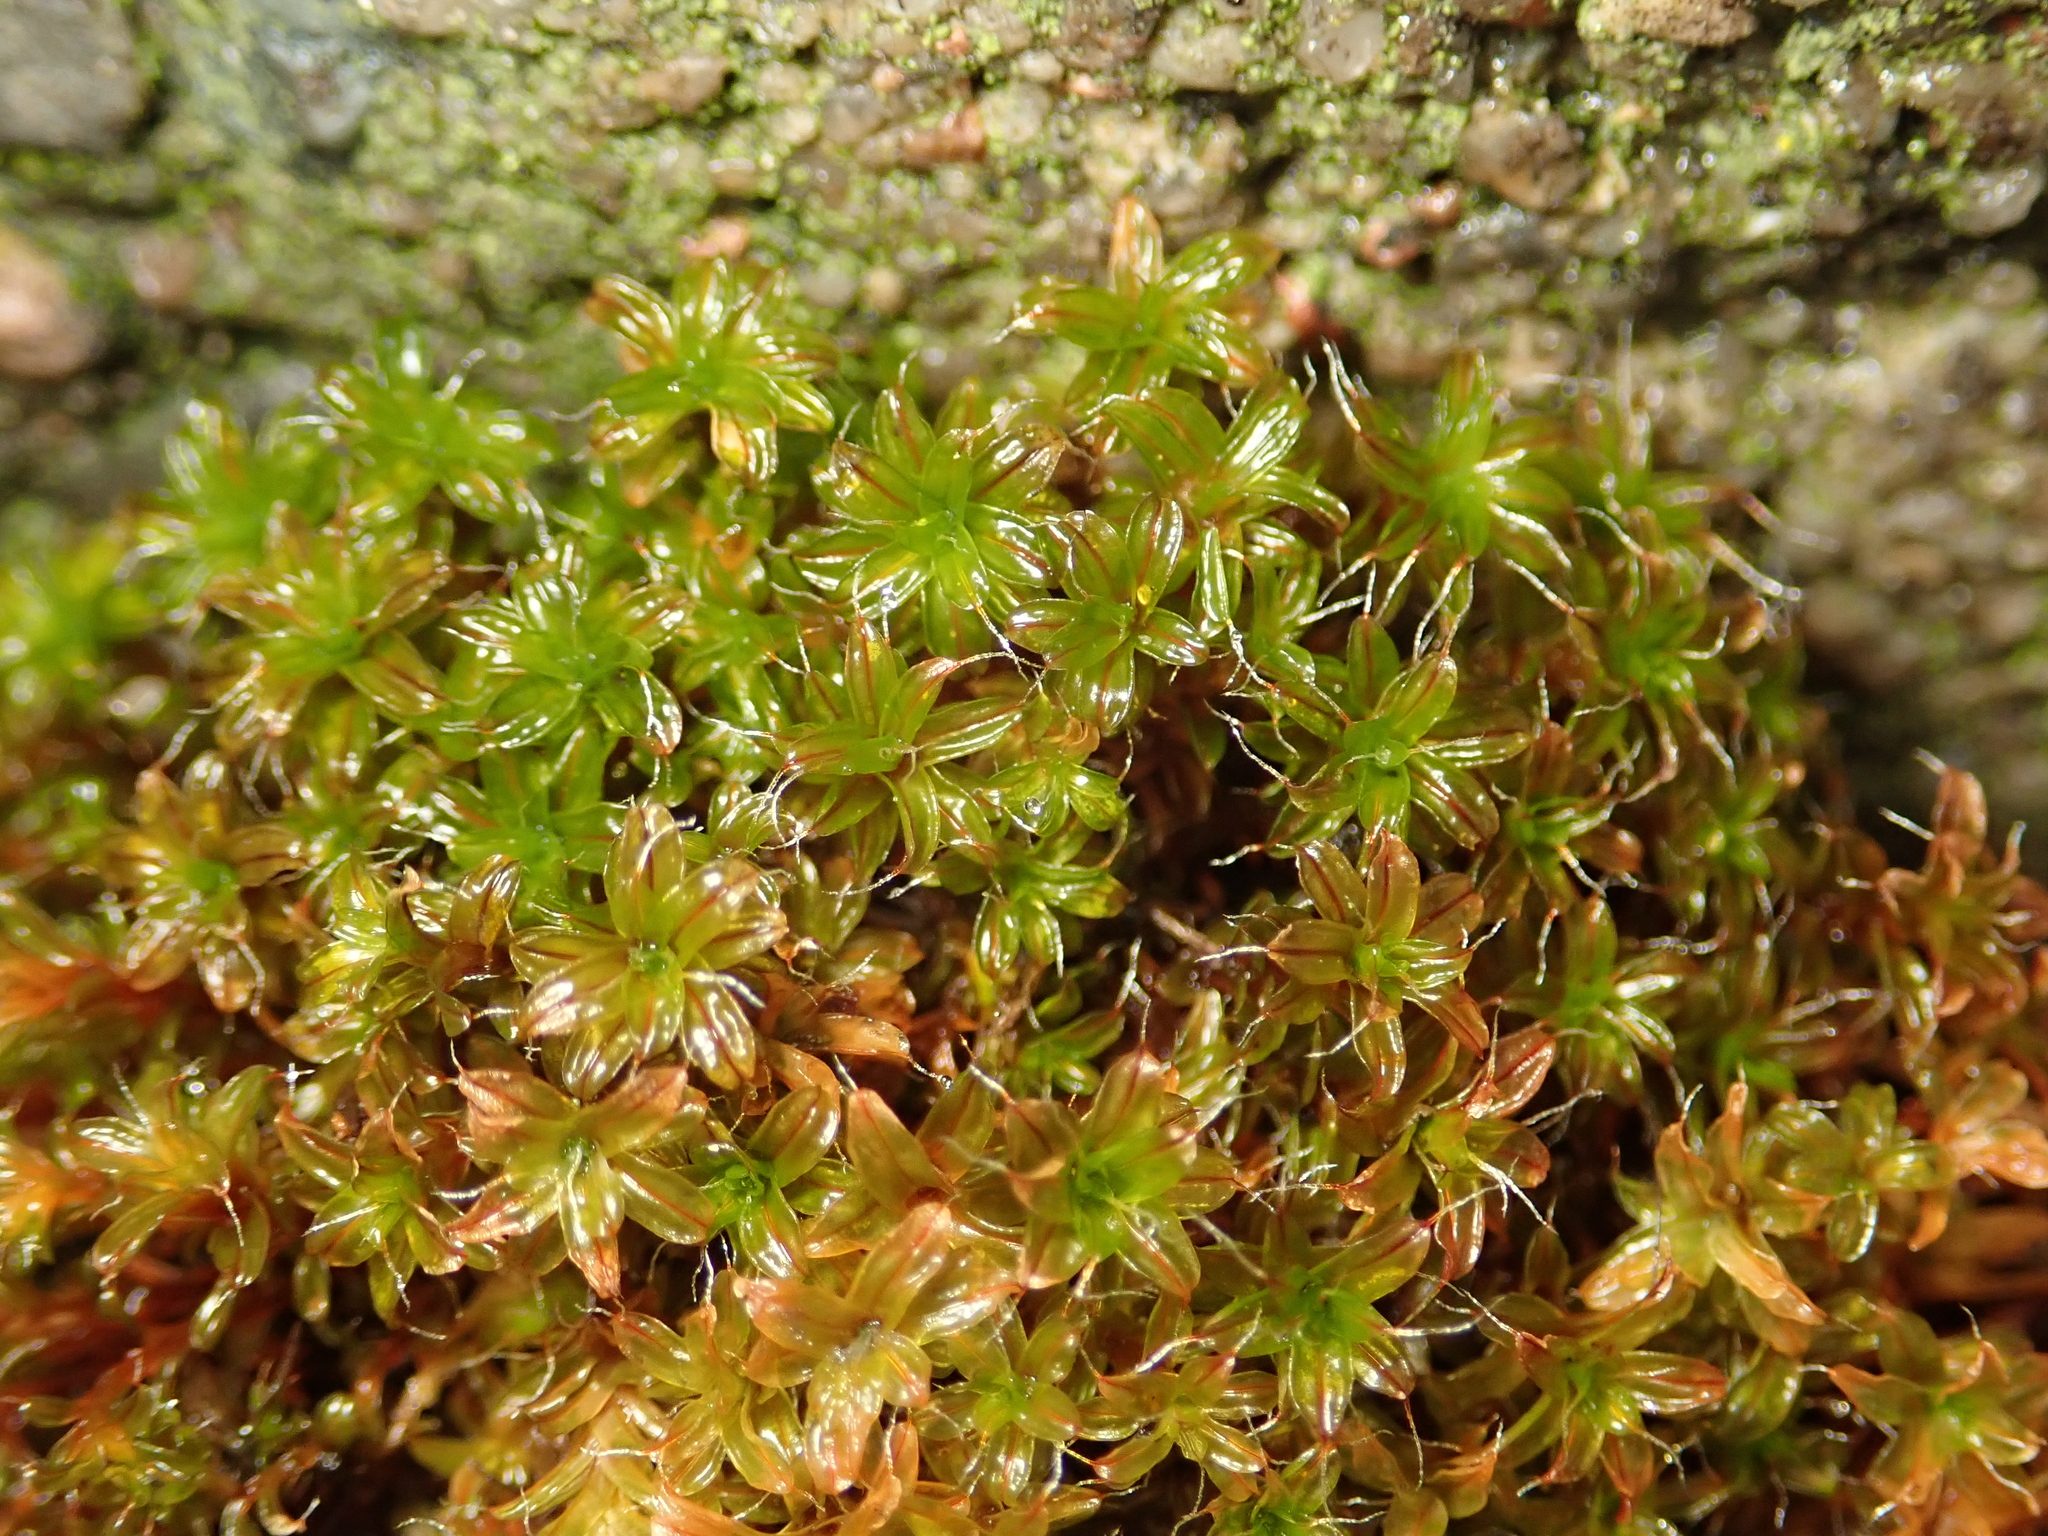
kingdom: Plantae
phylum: Bryophyta
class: Bryopsida
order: Pottiales
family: Pottiaceae
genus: Syntrichia
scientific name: Syntrichia ruralis
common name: Sidewalk screw moss
